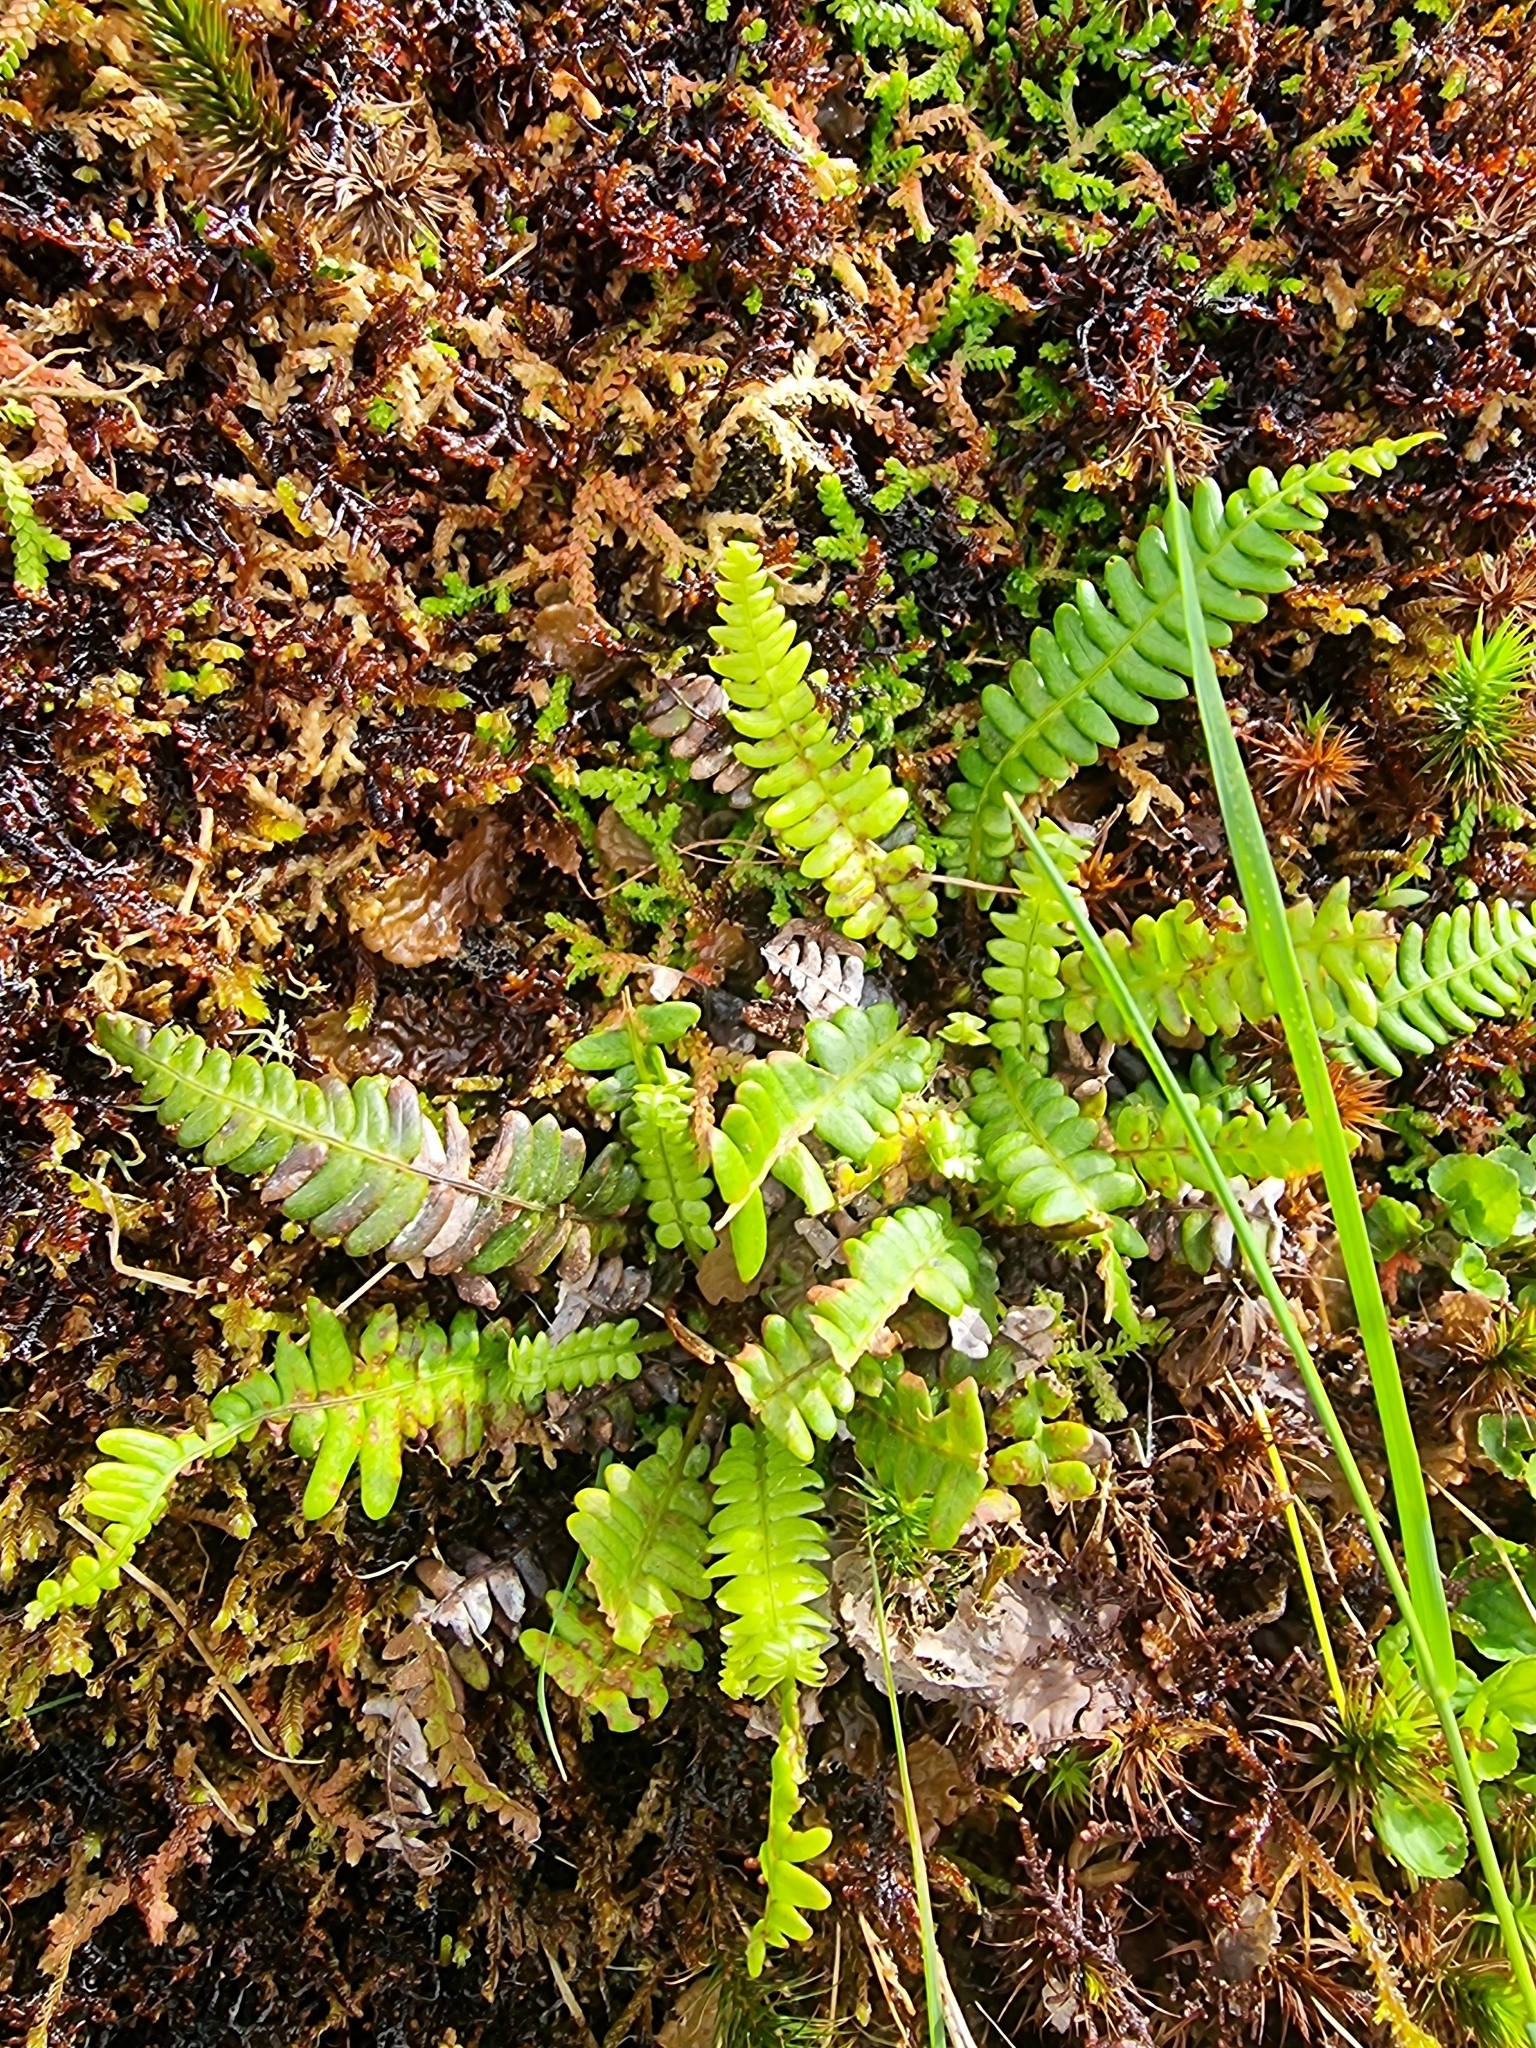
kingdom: Plantae
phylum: Tracheophyta
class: Polypodiopsida
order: Polypodiales
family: Blechnaceae
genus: Struthiopteris
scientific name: Struthiopteris spicant
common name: Deer fern
